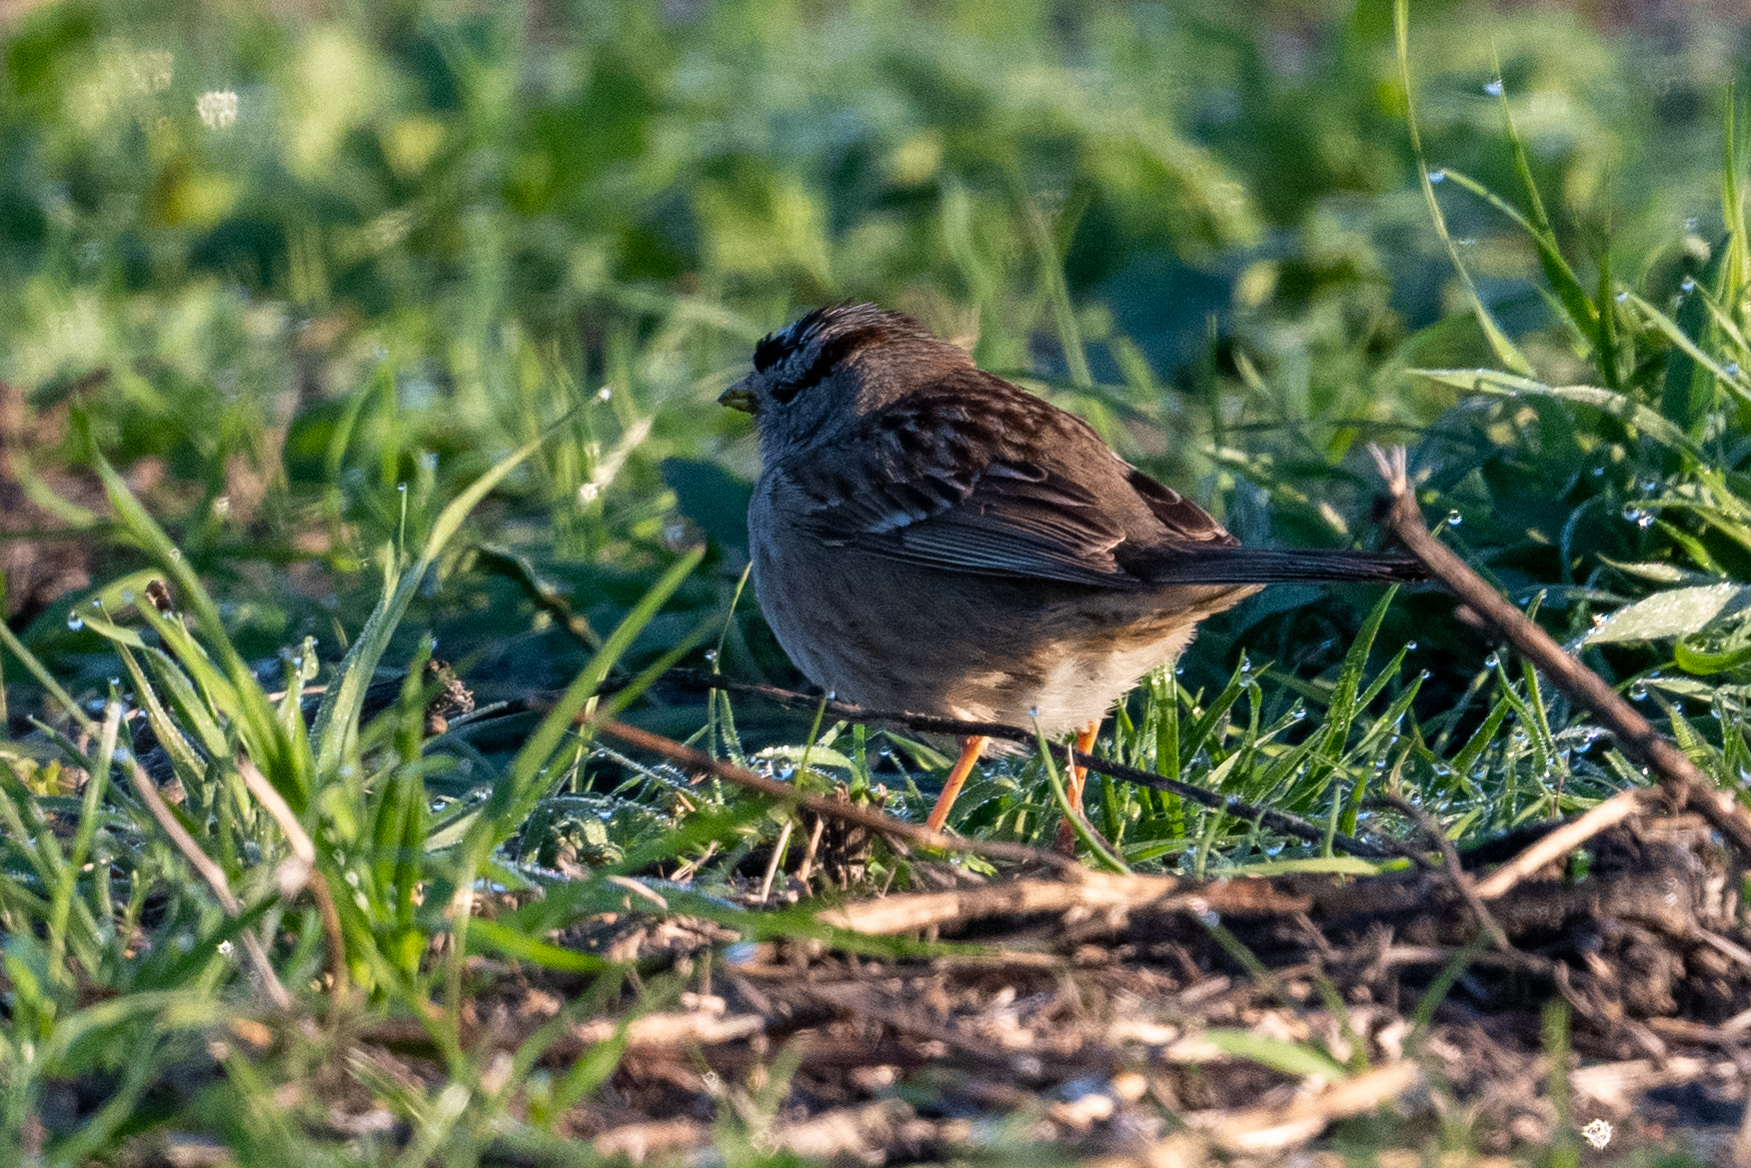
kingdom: Animalia
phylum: Chordata
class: Aves
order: Passeriformes
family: Passerellidae
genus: Zonotrichia
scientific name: Zonotrichia leucophrys
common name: White-crowned sparrow
